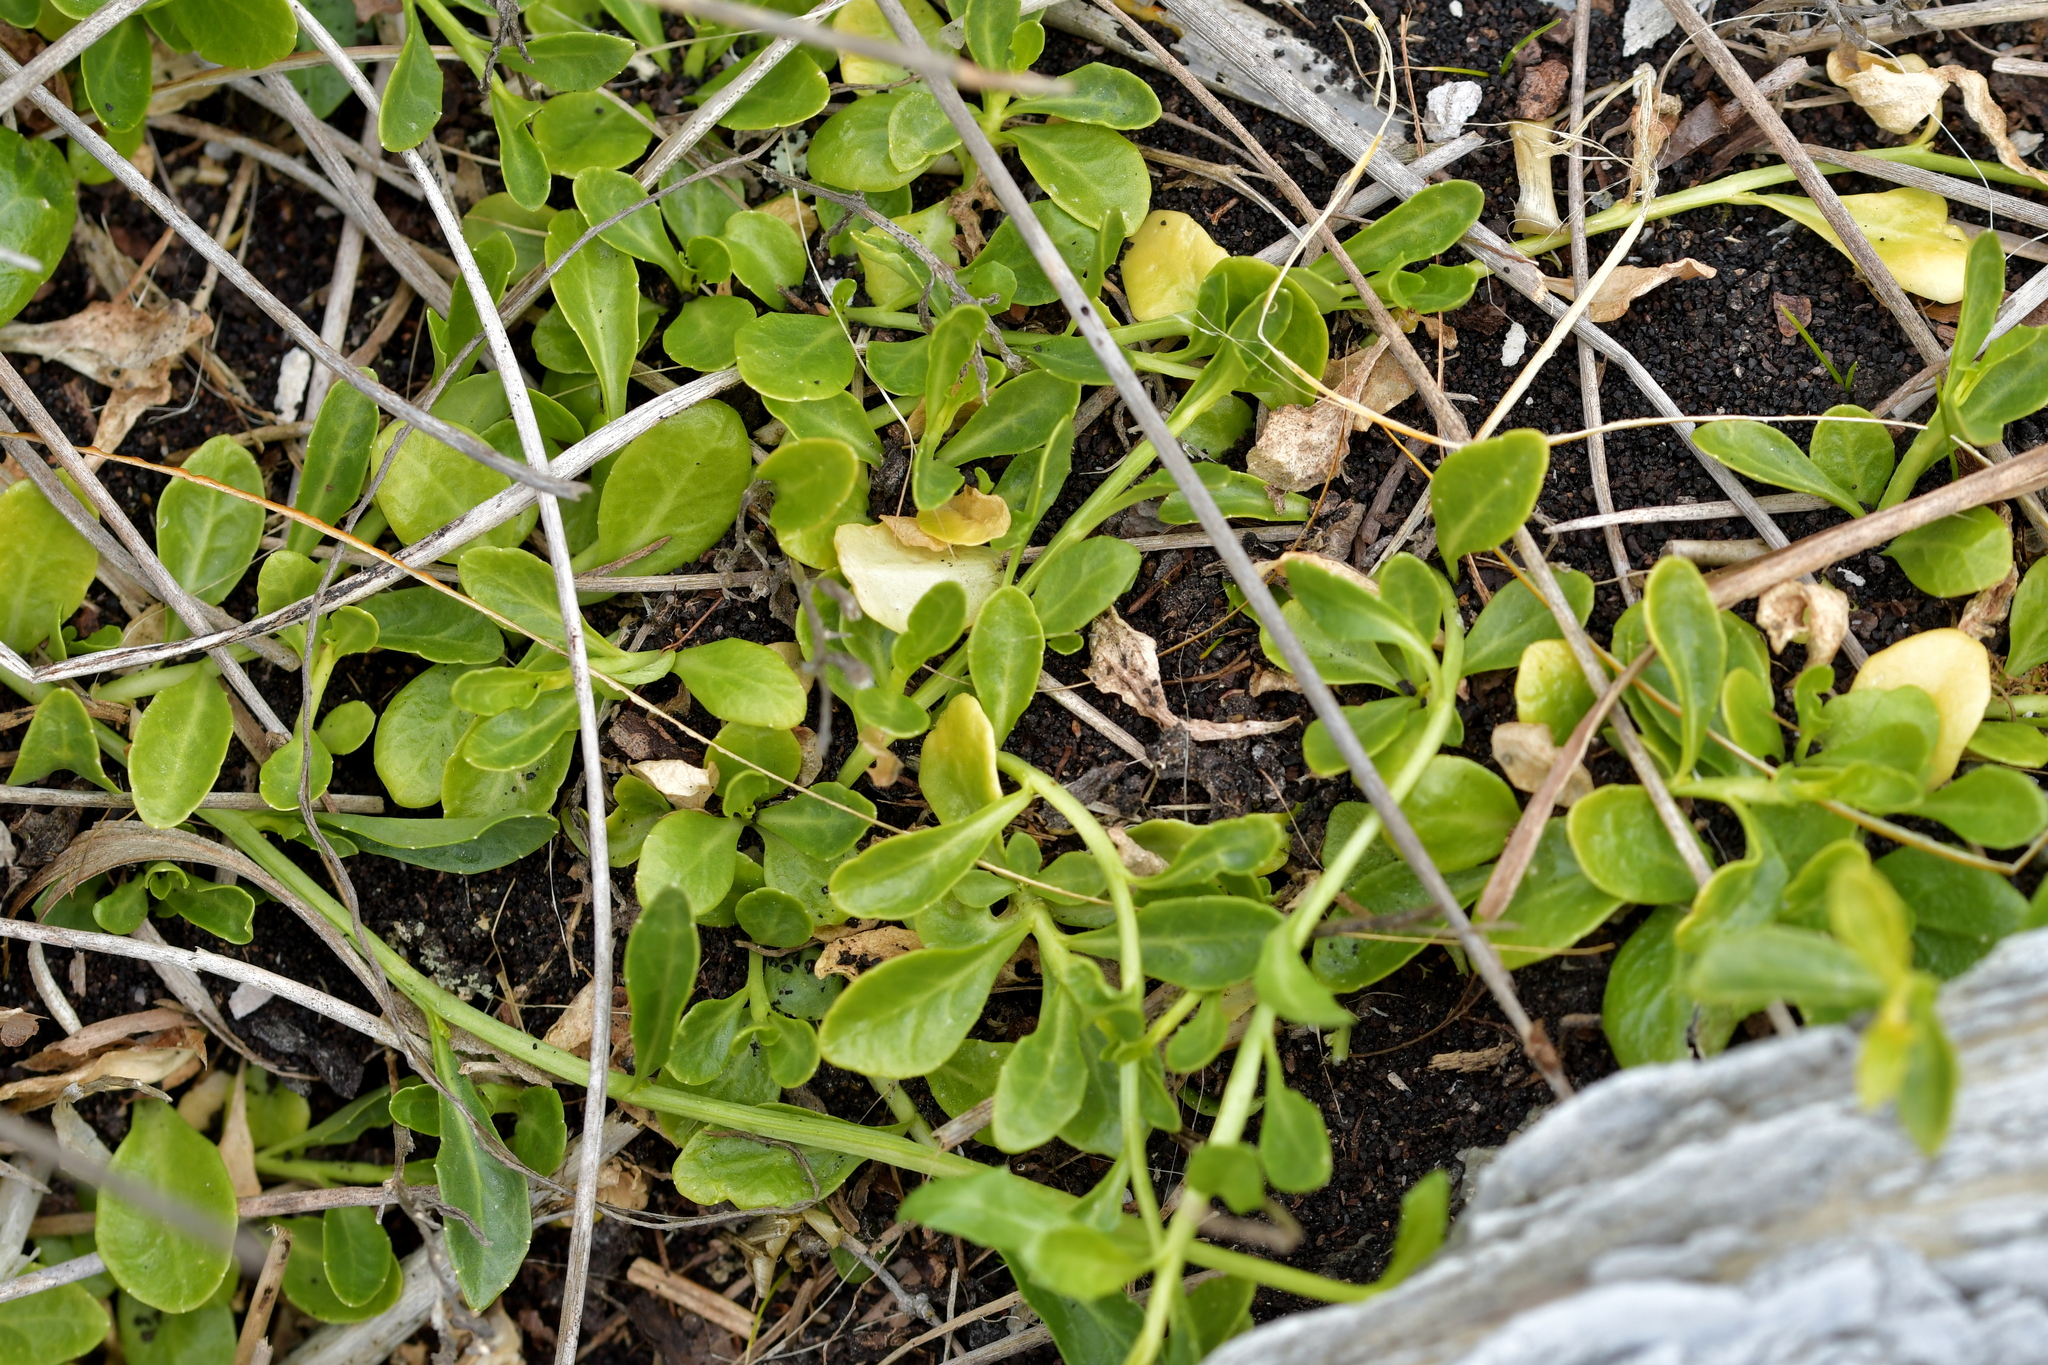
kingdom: Plantae
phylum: Tracheophyta
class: Magnoliopsida
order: Asterales
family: Campanulaceae
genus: Lobelia
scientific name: Lobelia anceps
